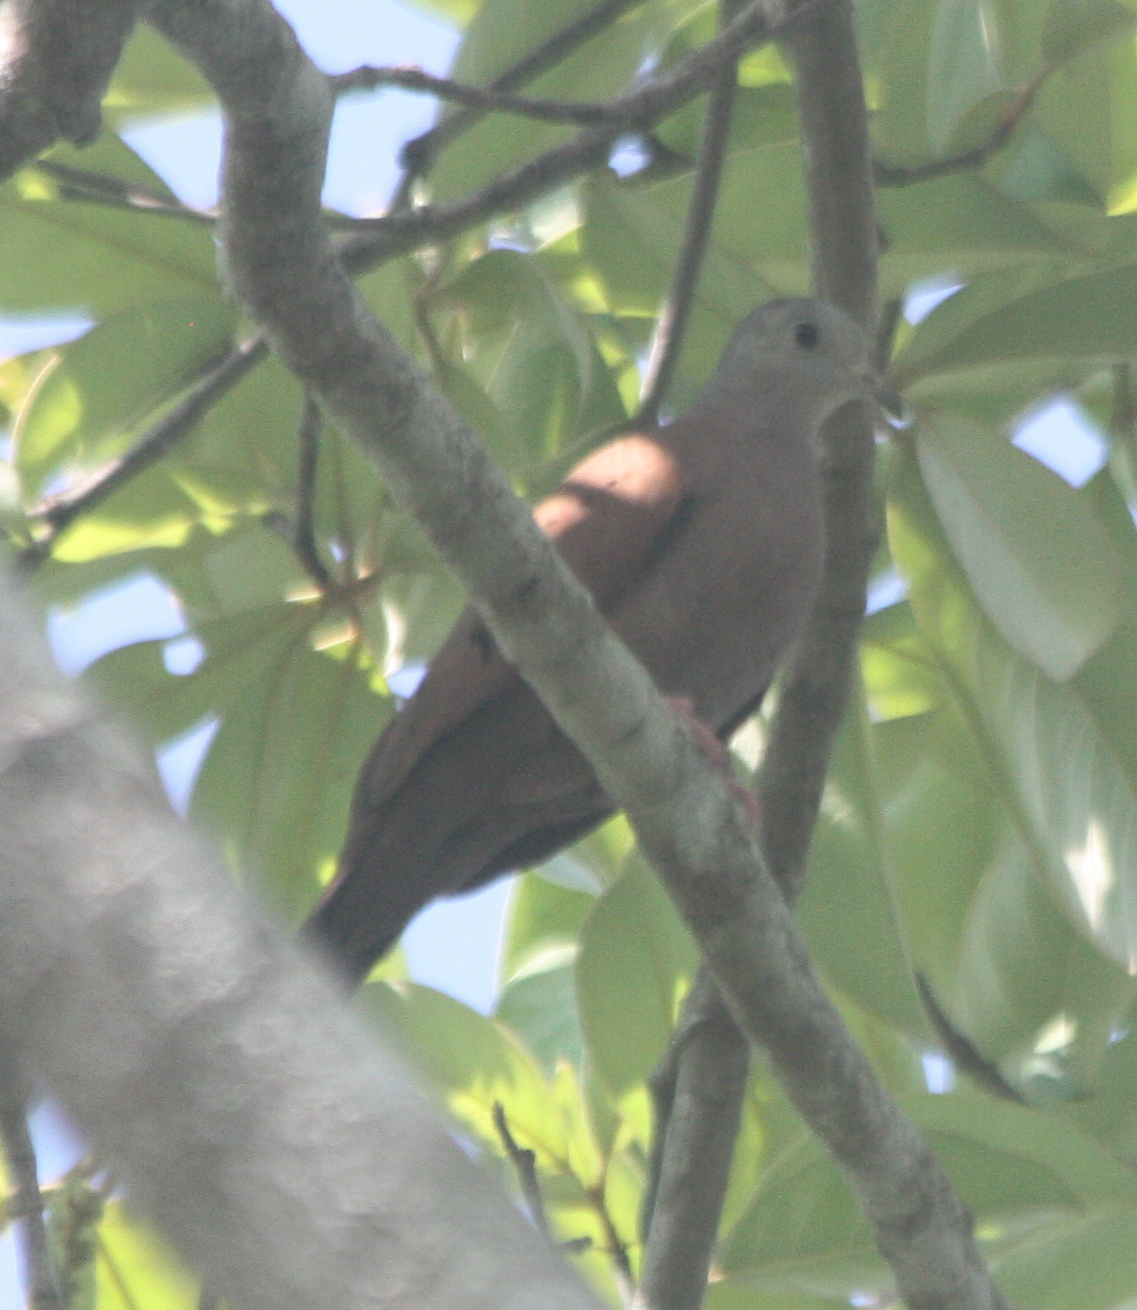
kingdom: Animalia
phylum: Chordata
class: Aves
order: Columbiformes
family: Columbidae
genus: Columbina
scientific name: Columbina talpacoti
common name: Ruddy ground dove
